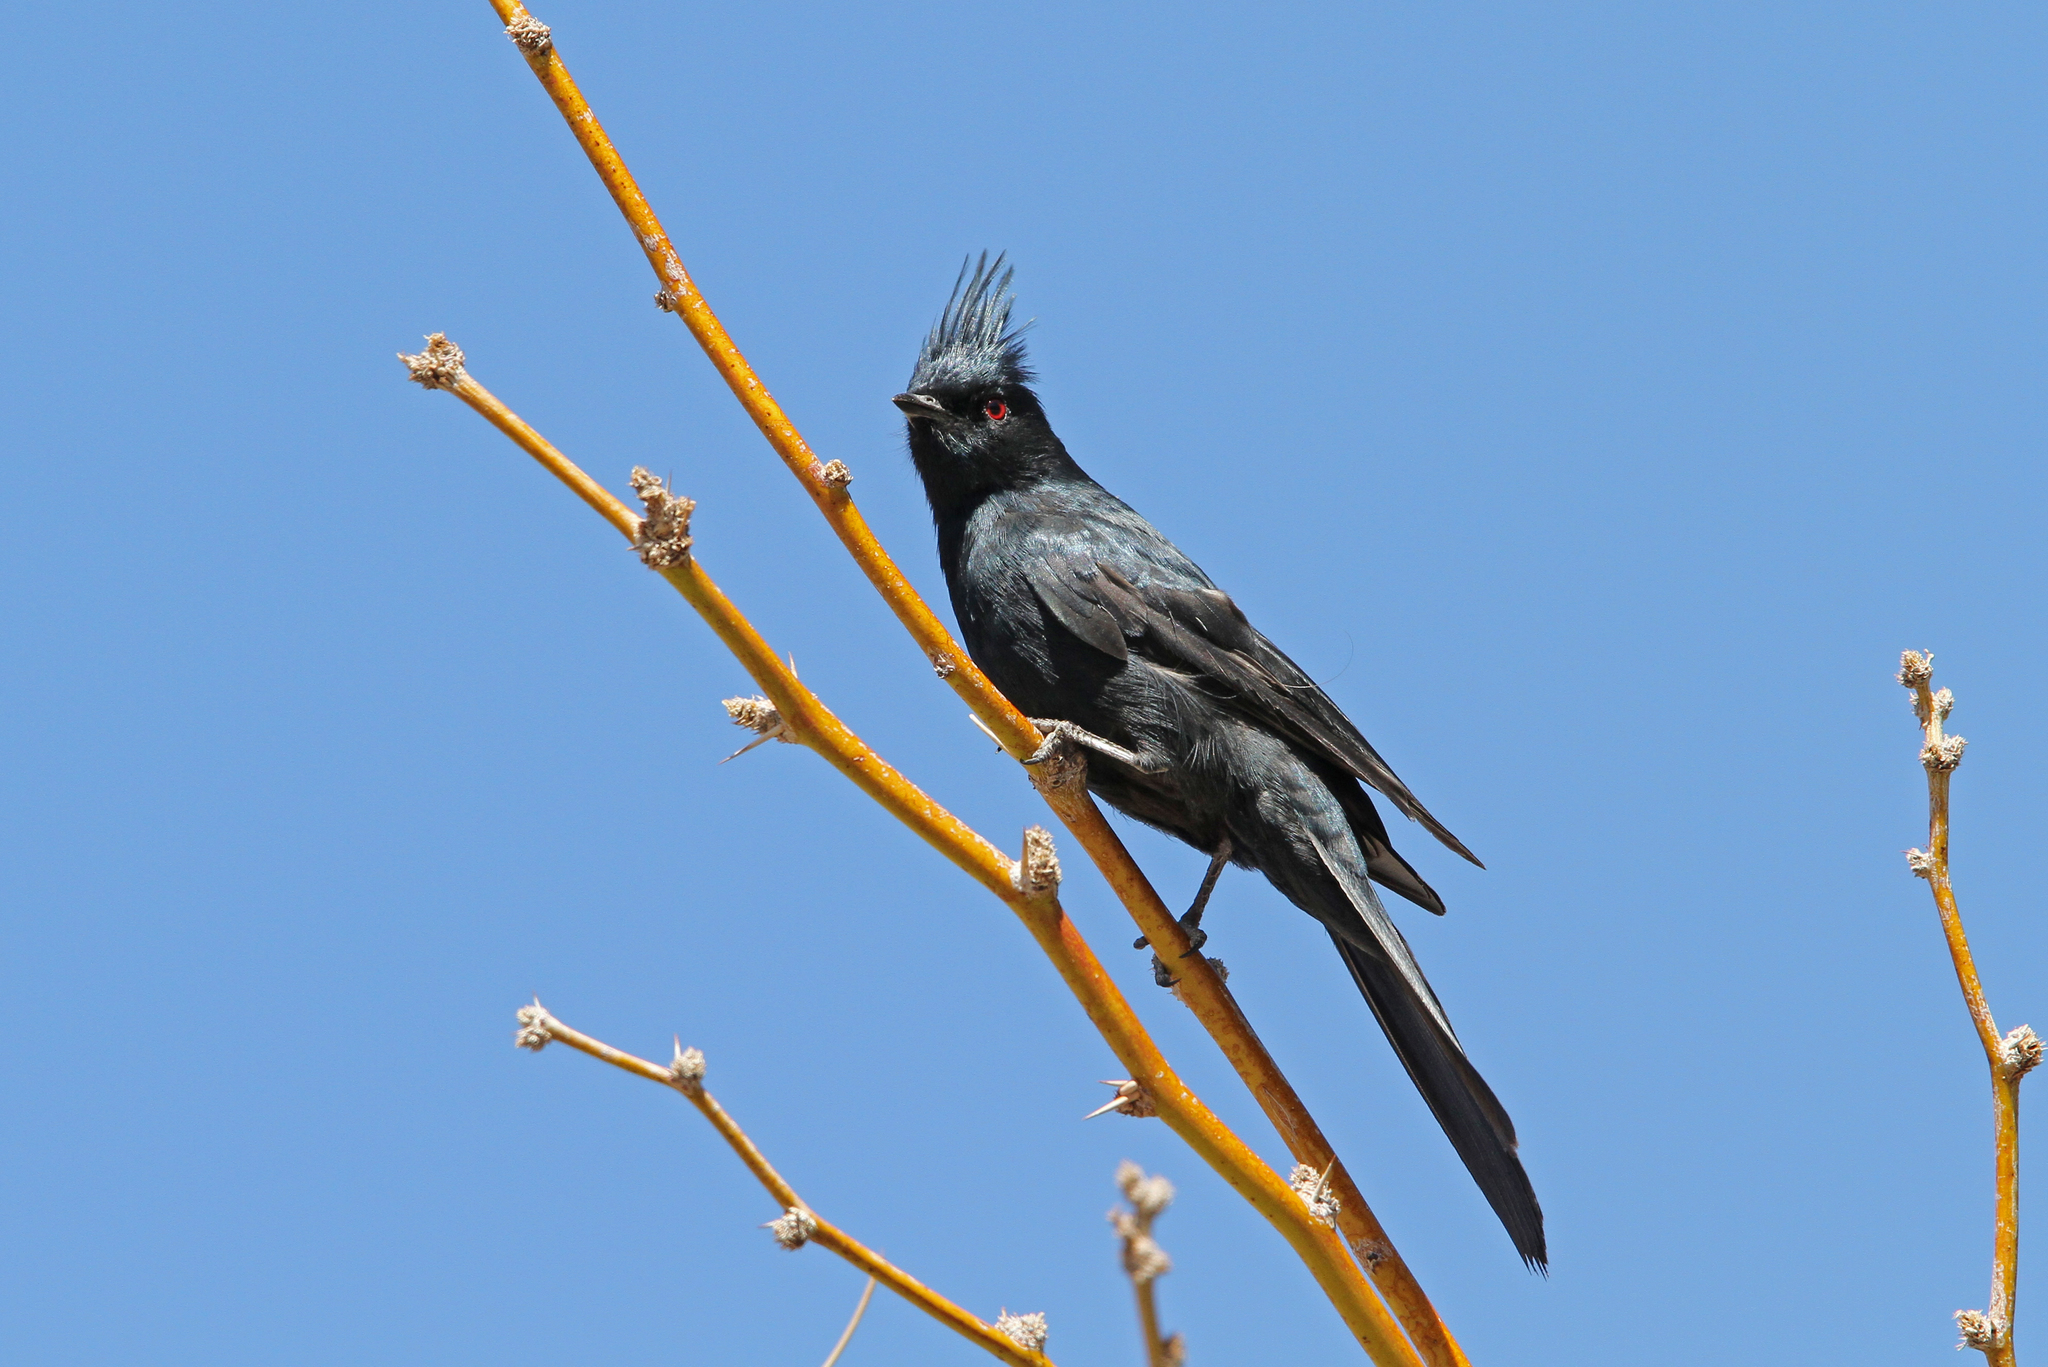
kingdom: Animalia
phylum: Chordata
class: Aves
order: Passeriformes
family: Ptilogonatidae
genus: Phainopepla
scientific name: Phainopepla nitens
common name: Phainopepla
